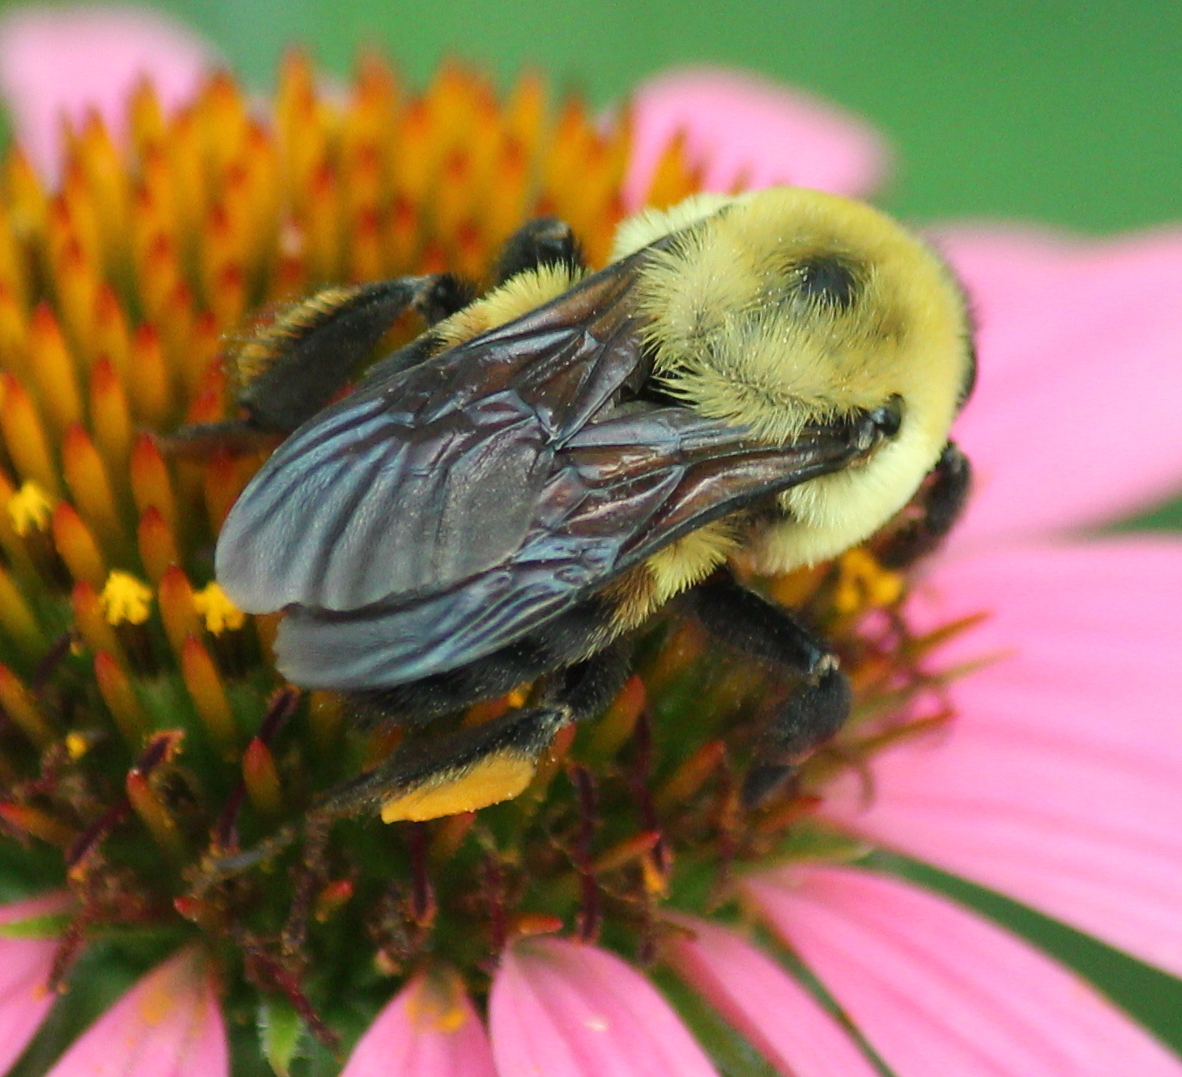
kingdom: Animalia
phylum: Arthropoda
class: Insecta
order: Hymenoptera
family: Apidae
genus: Bombus
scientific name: Bombus griseocollis
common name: Brown-belted bumble bee
